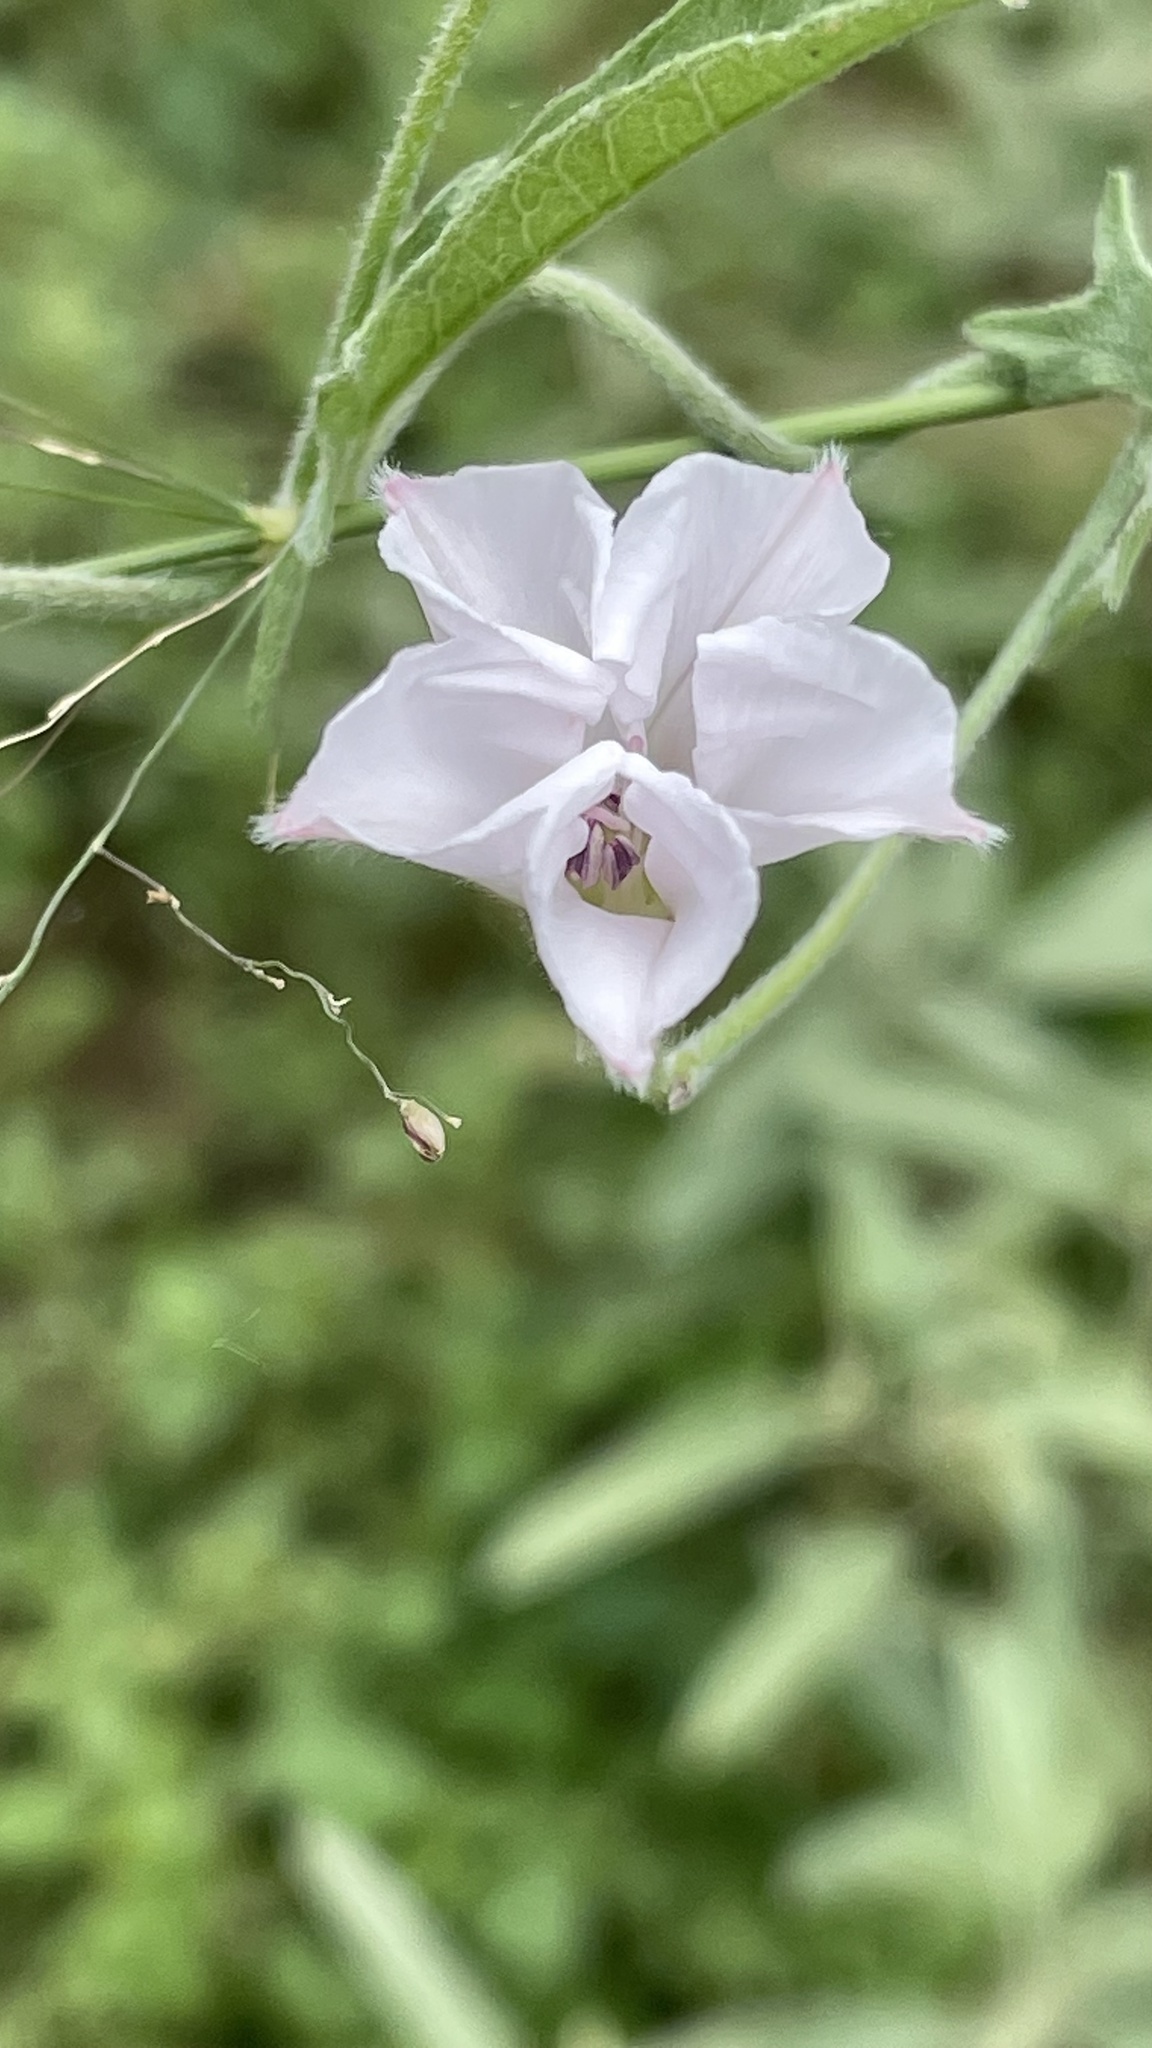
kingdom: Plantae
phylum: Tracheophyta
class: Magnoliopsida
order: Solanales
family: Convolvulaceae
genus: Convolvulus
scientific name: Convolvulus equitans
